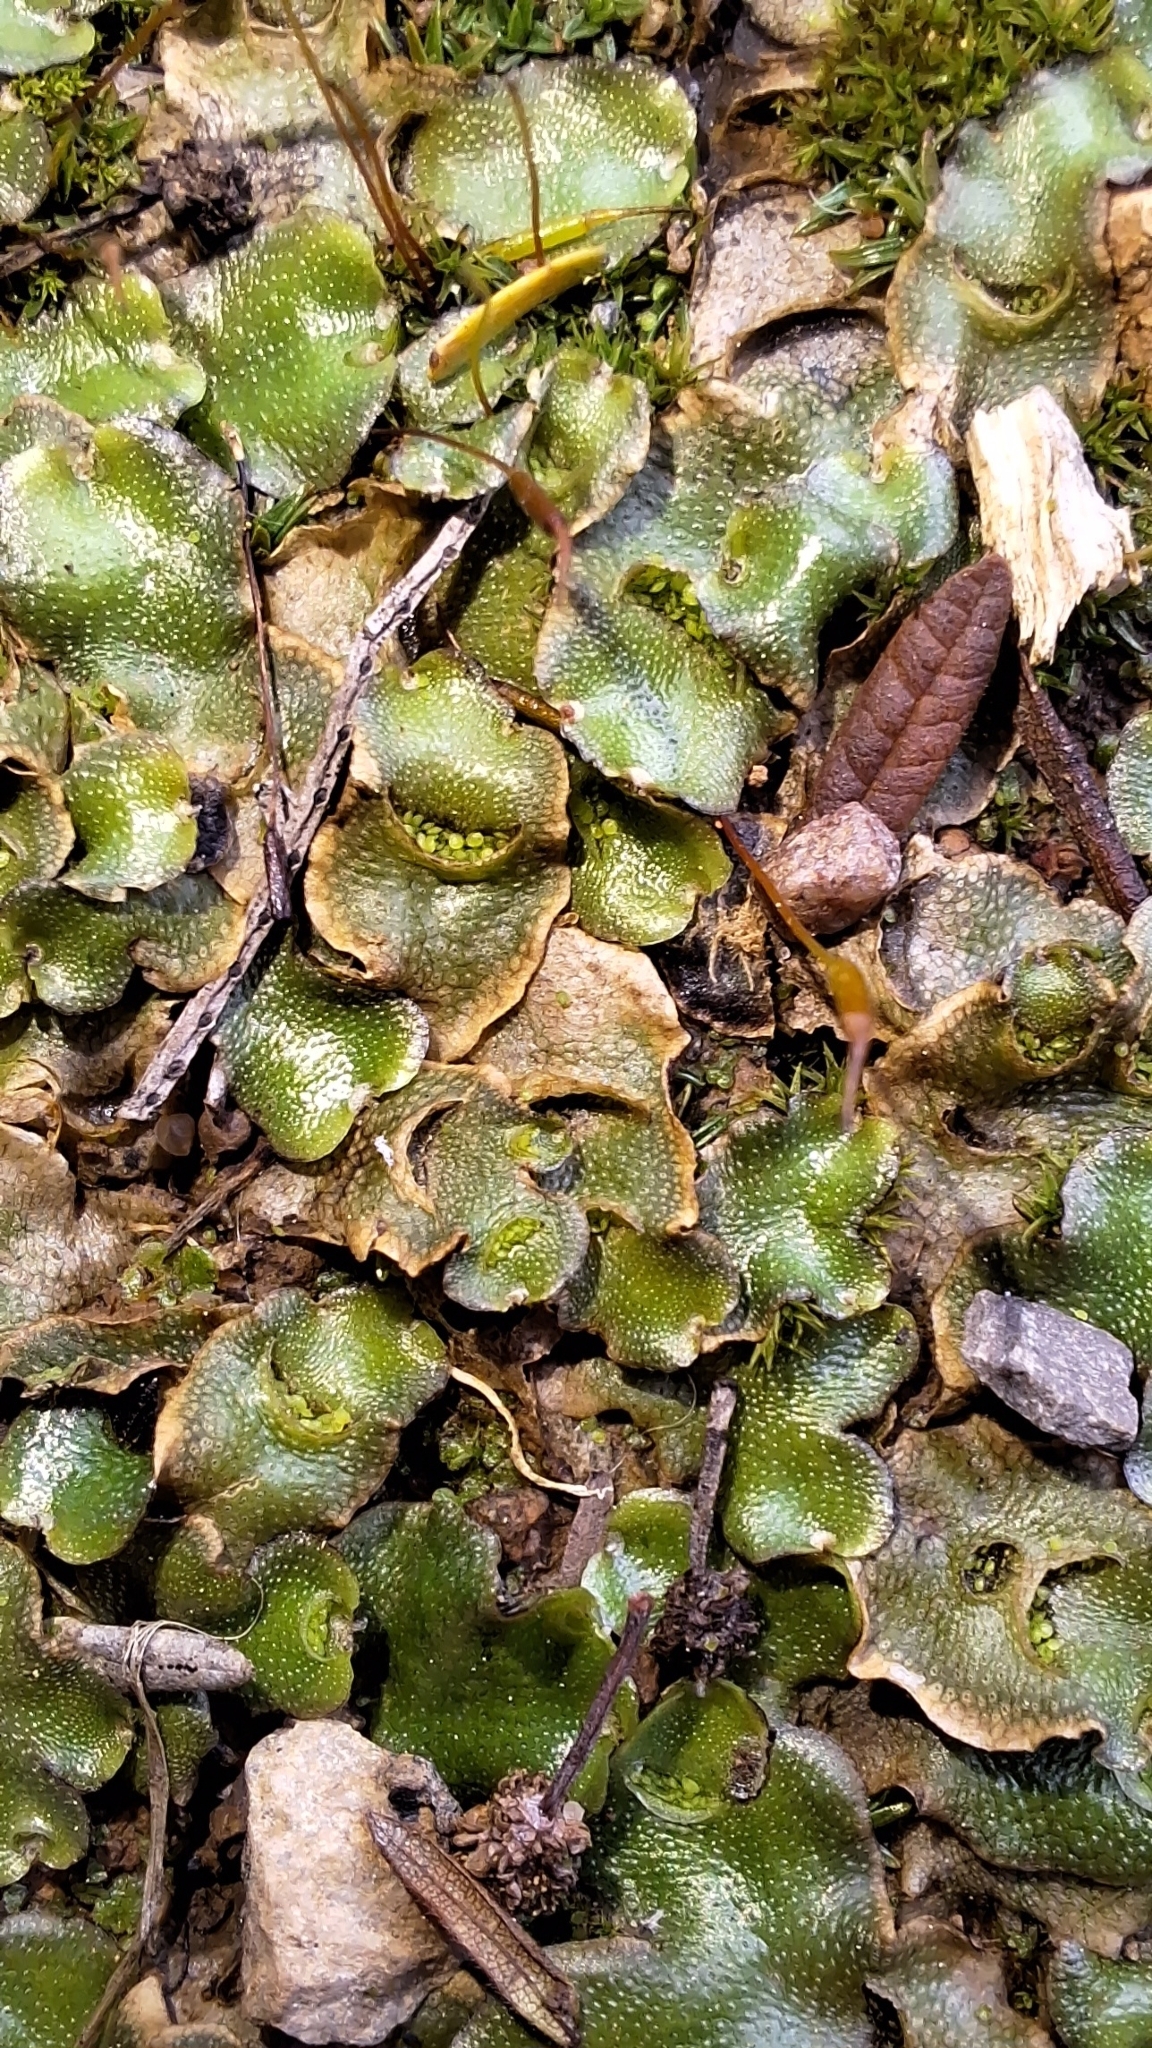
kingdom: Plantae
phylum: Marchantiophyta
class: Marchantiopsida
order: Lunulariales
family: Lunulariaceae
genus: Lunularia
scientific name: Lunularia cruciata
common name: Crescent-cup liverwort
